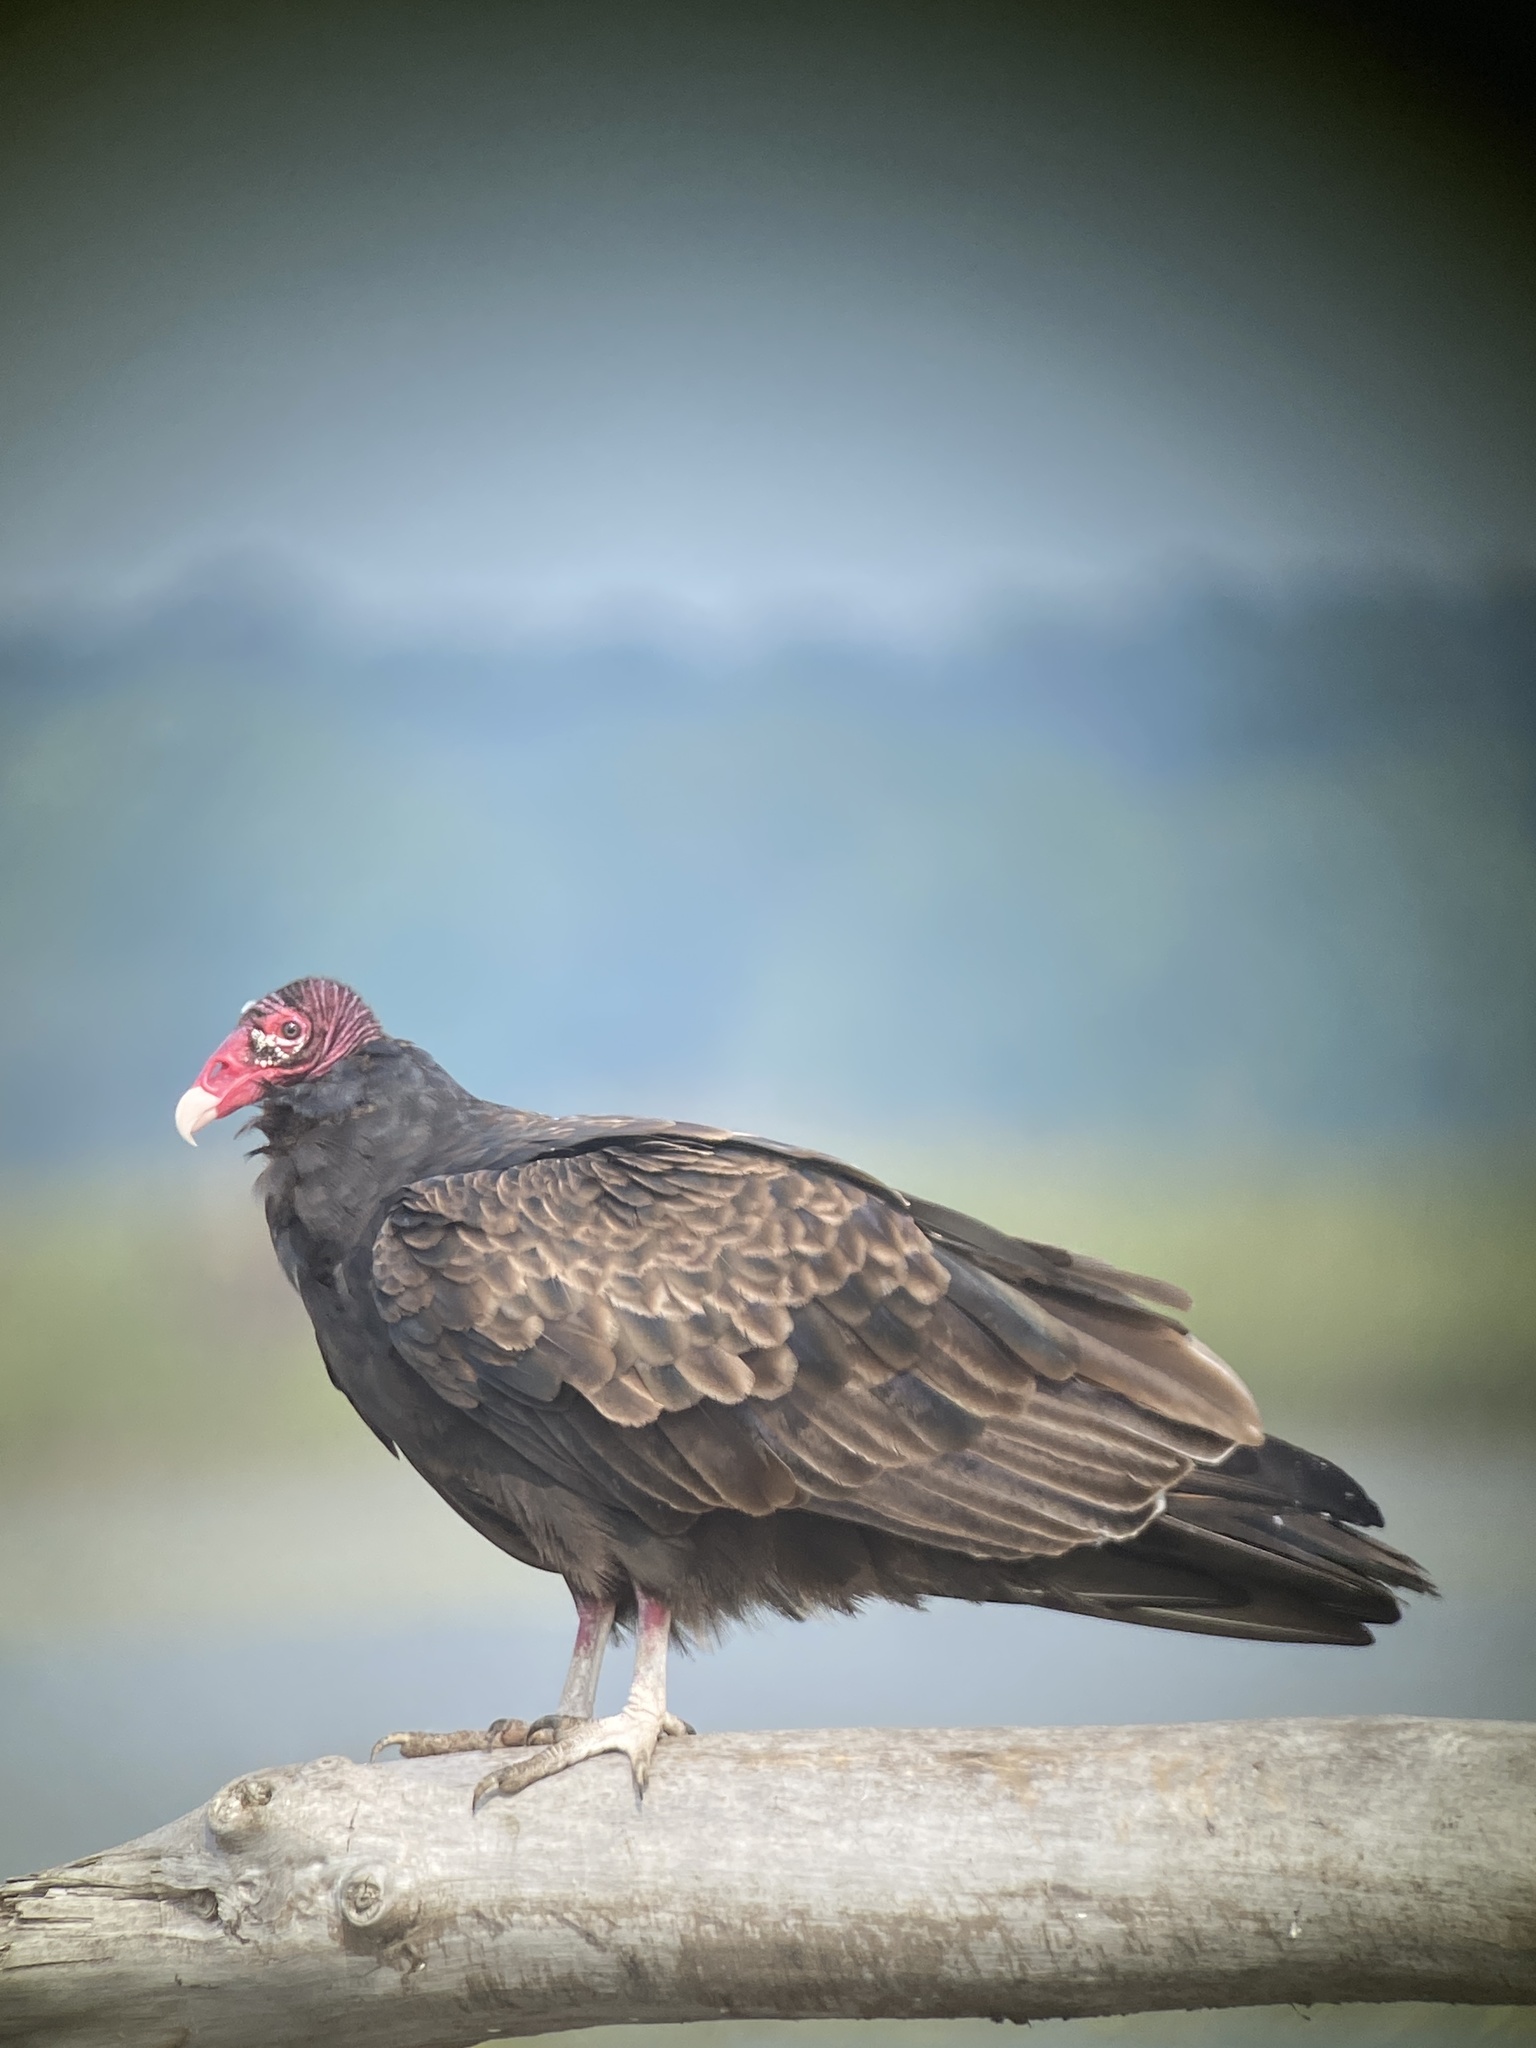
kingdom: Animalia
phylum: Chordata
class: Aves
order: Accipitriformes
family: Cathartidae
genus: Cathartes
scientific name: Cathartes aura
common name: Turkey vulture
